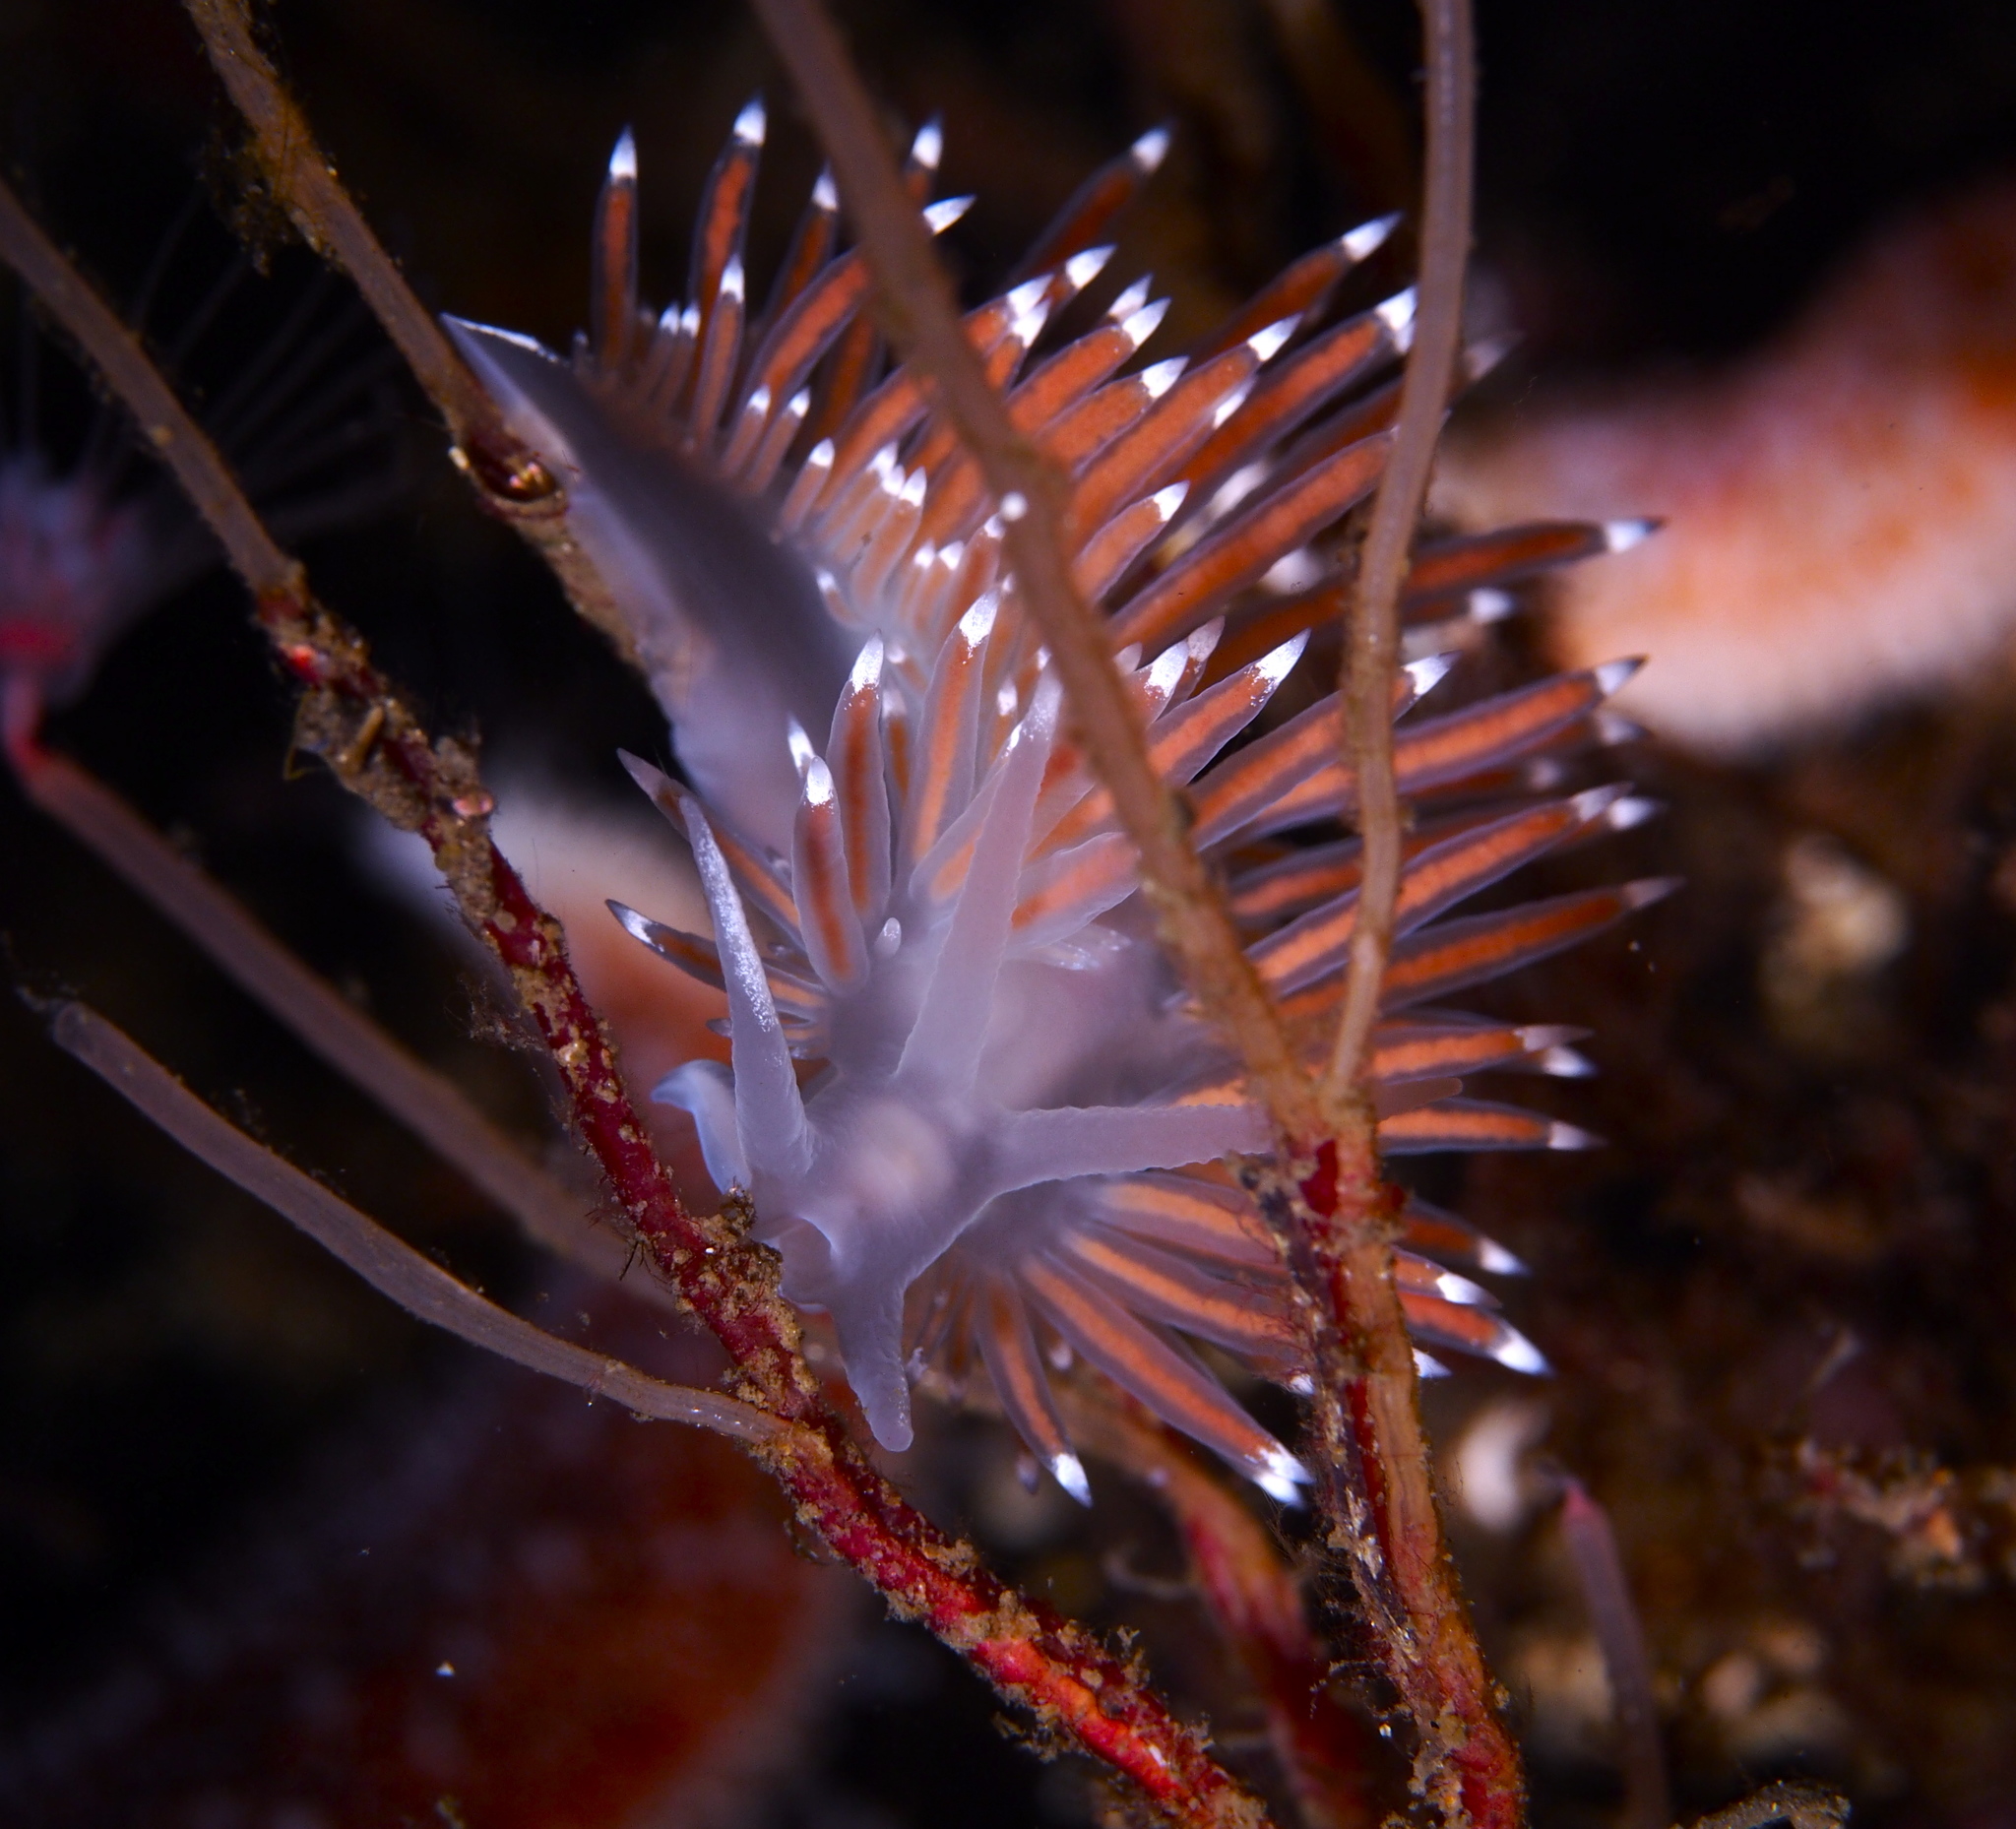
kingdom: Animalia
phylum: Mollusca
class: Gastropoda
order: Nudibranchia
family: Coryphellidae
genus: Coryphella
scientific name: Coryphella browni
